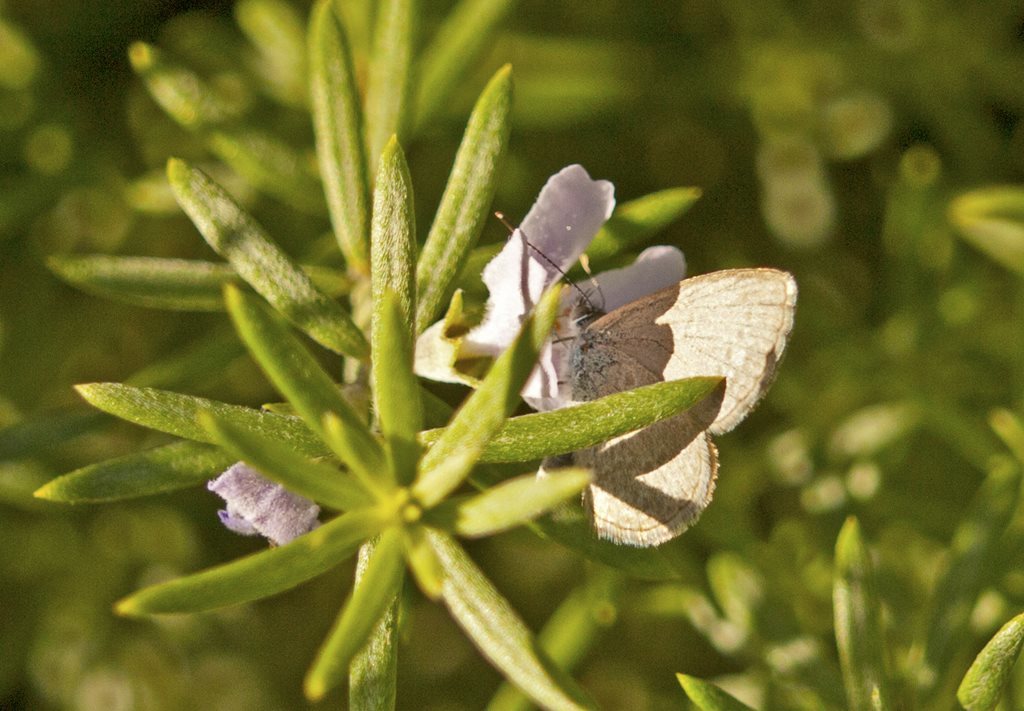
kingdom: Animalia
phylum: Arthropoda
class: Insecta
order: Lepidoptera
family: Lycaenidae
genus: Zizina
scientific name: Zizina labradus
